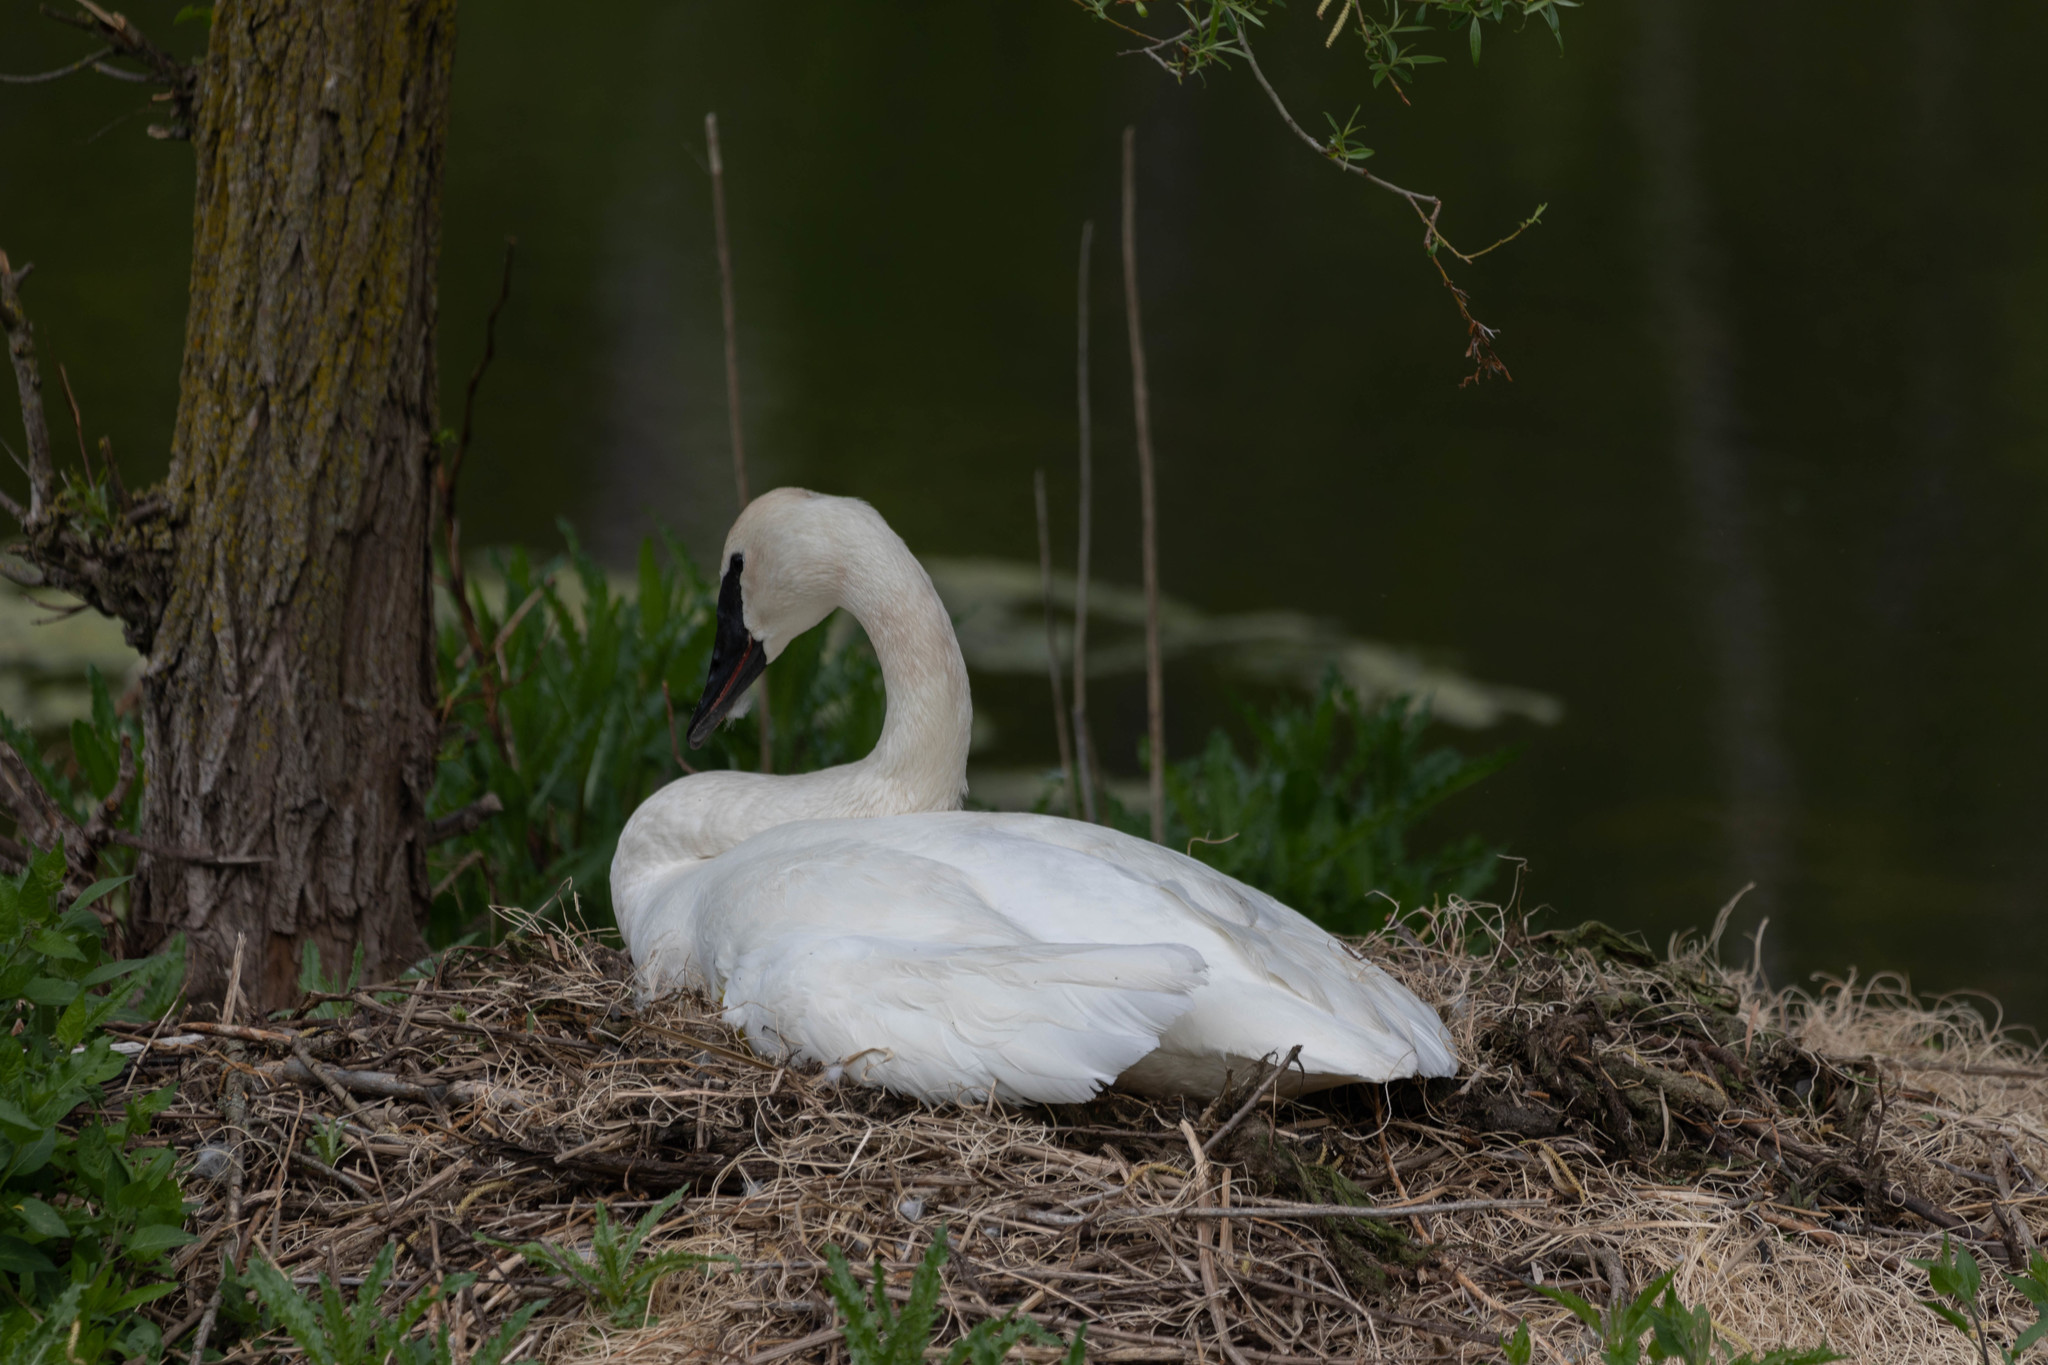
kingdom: Animalia
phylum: Chordata
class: Aves
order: Anseriformes
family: Anatidae
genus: Cygnus
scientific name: Cygnus buccinator
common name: Trumpeter swan
